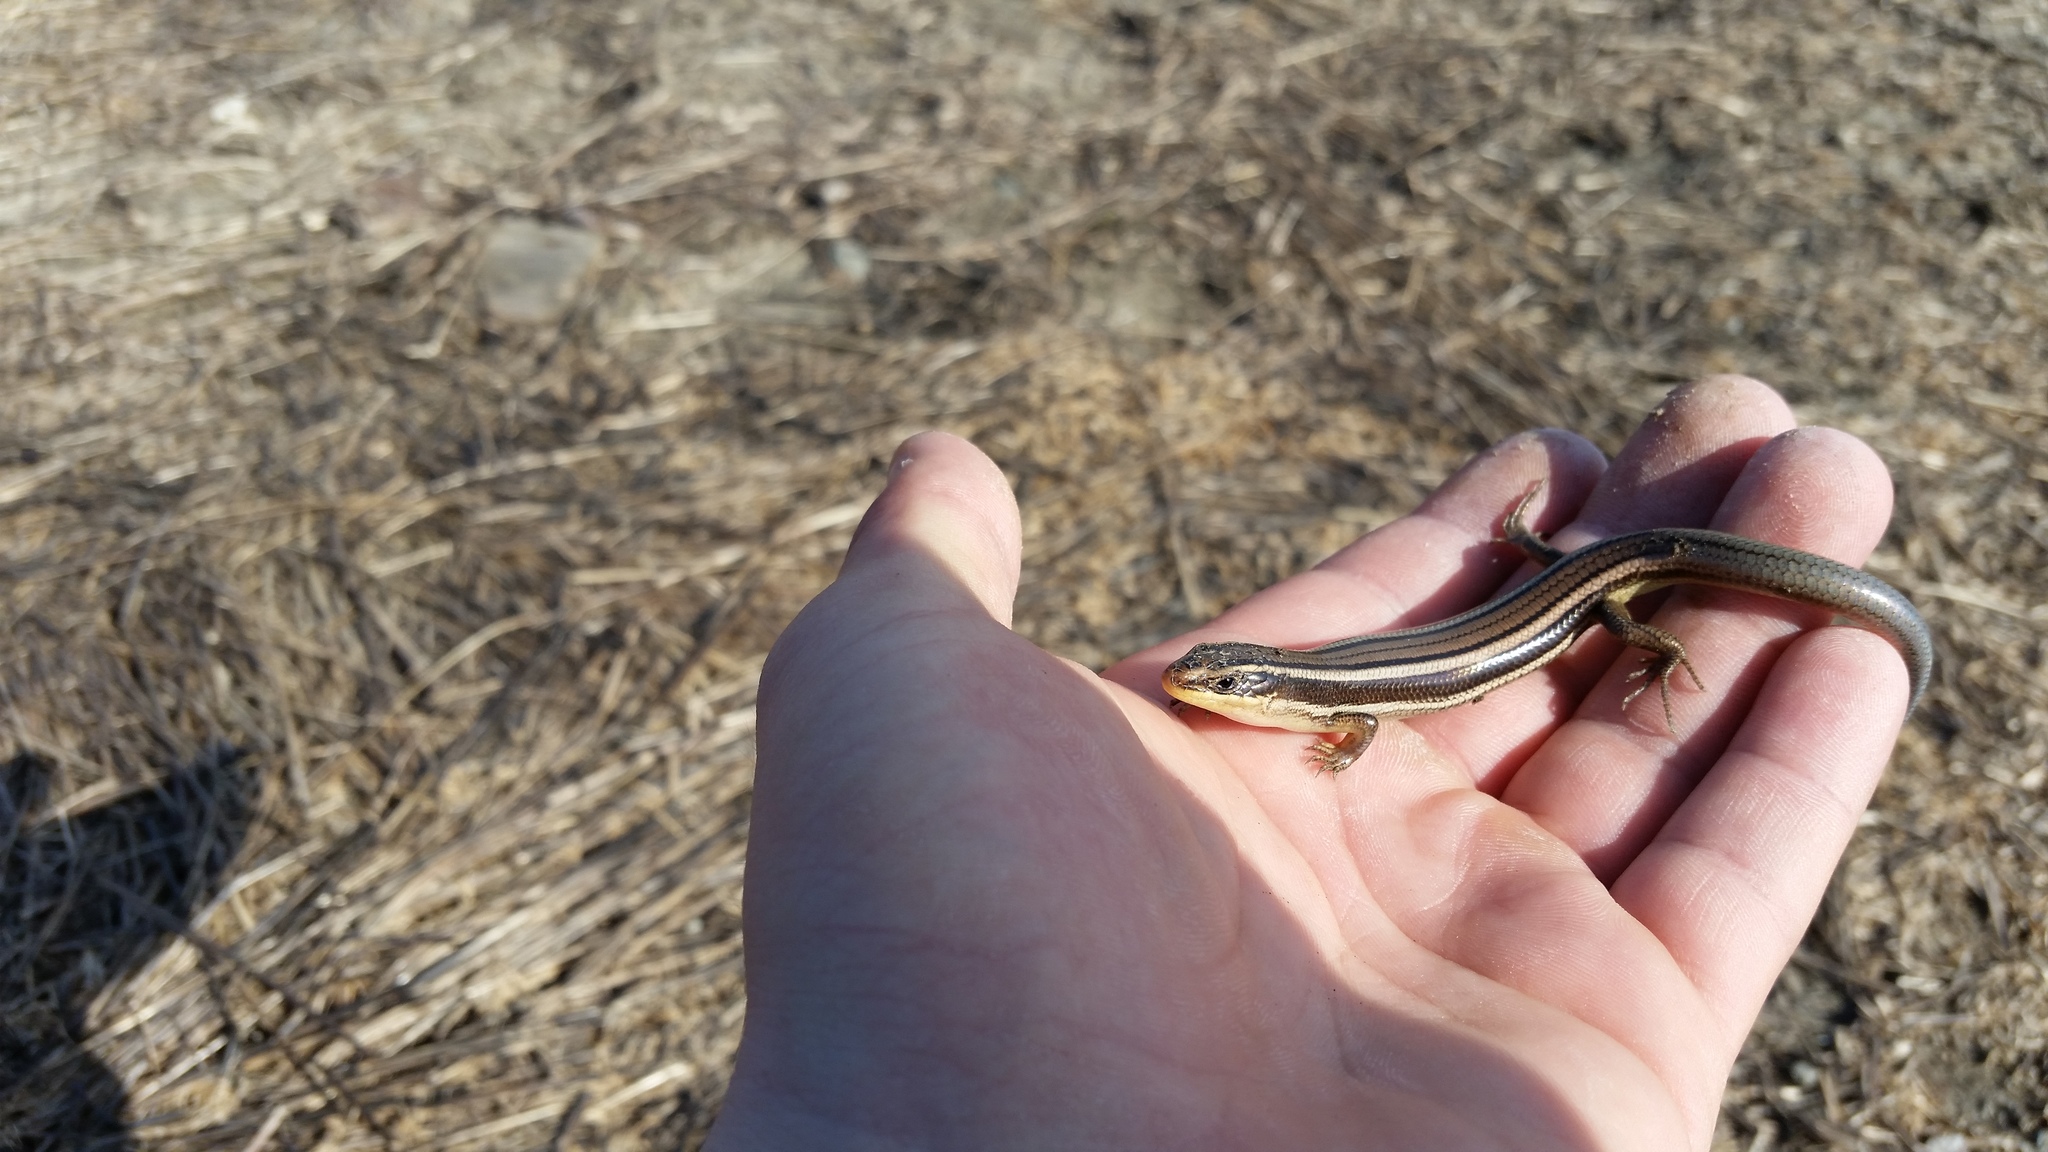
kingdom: Animalia
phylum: Chordata
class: Squamata
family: Scincidae
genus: Plestiodon
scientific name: Plestiodon gilberti
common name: Gilbert's skink
